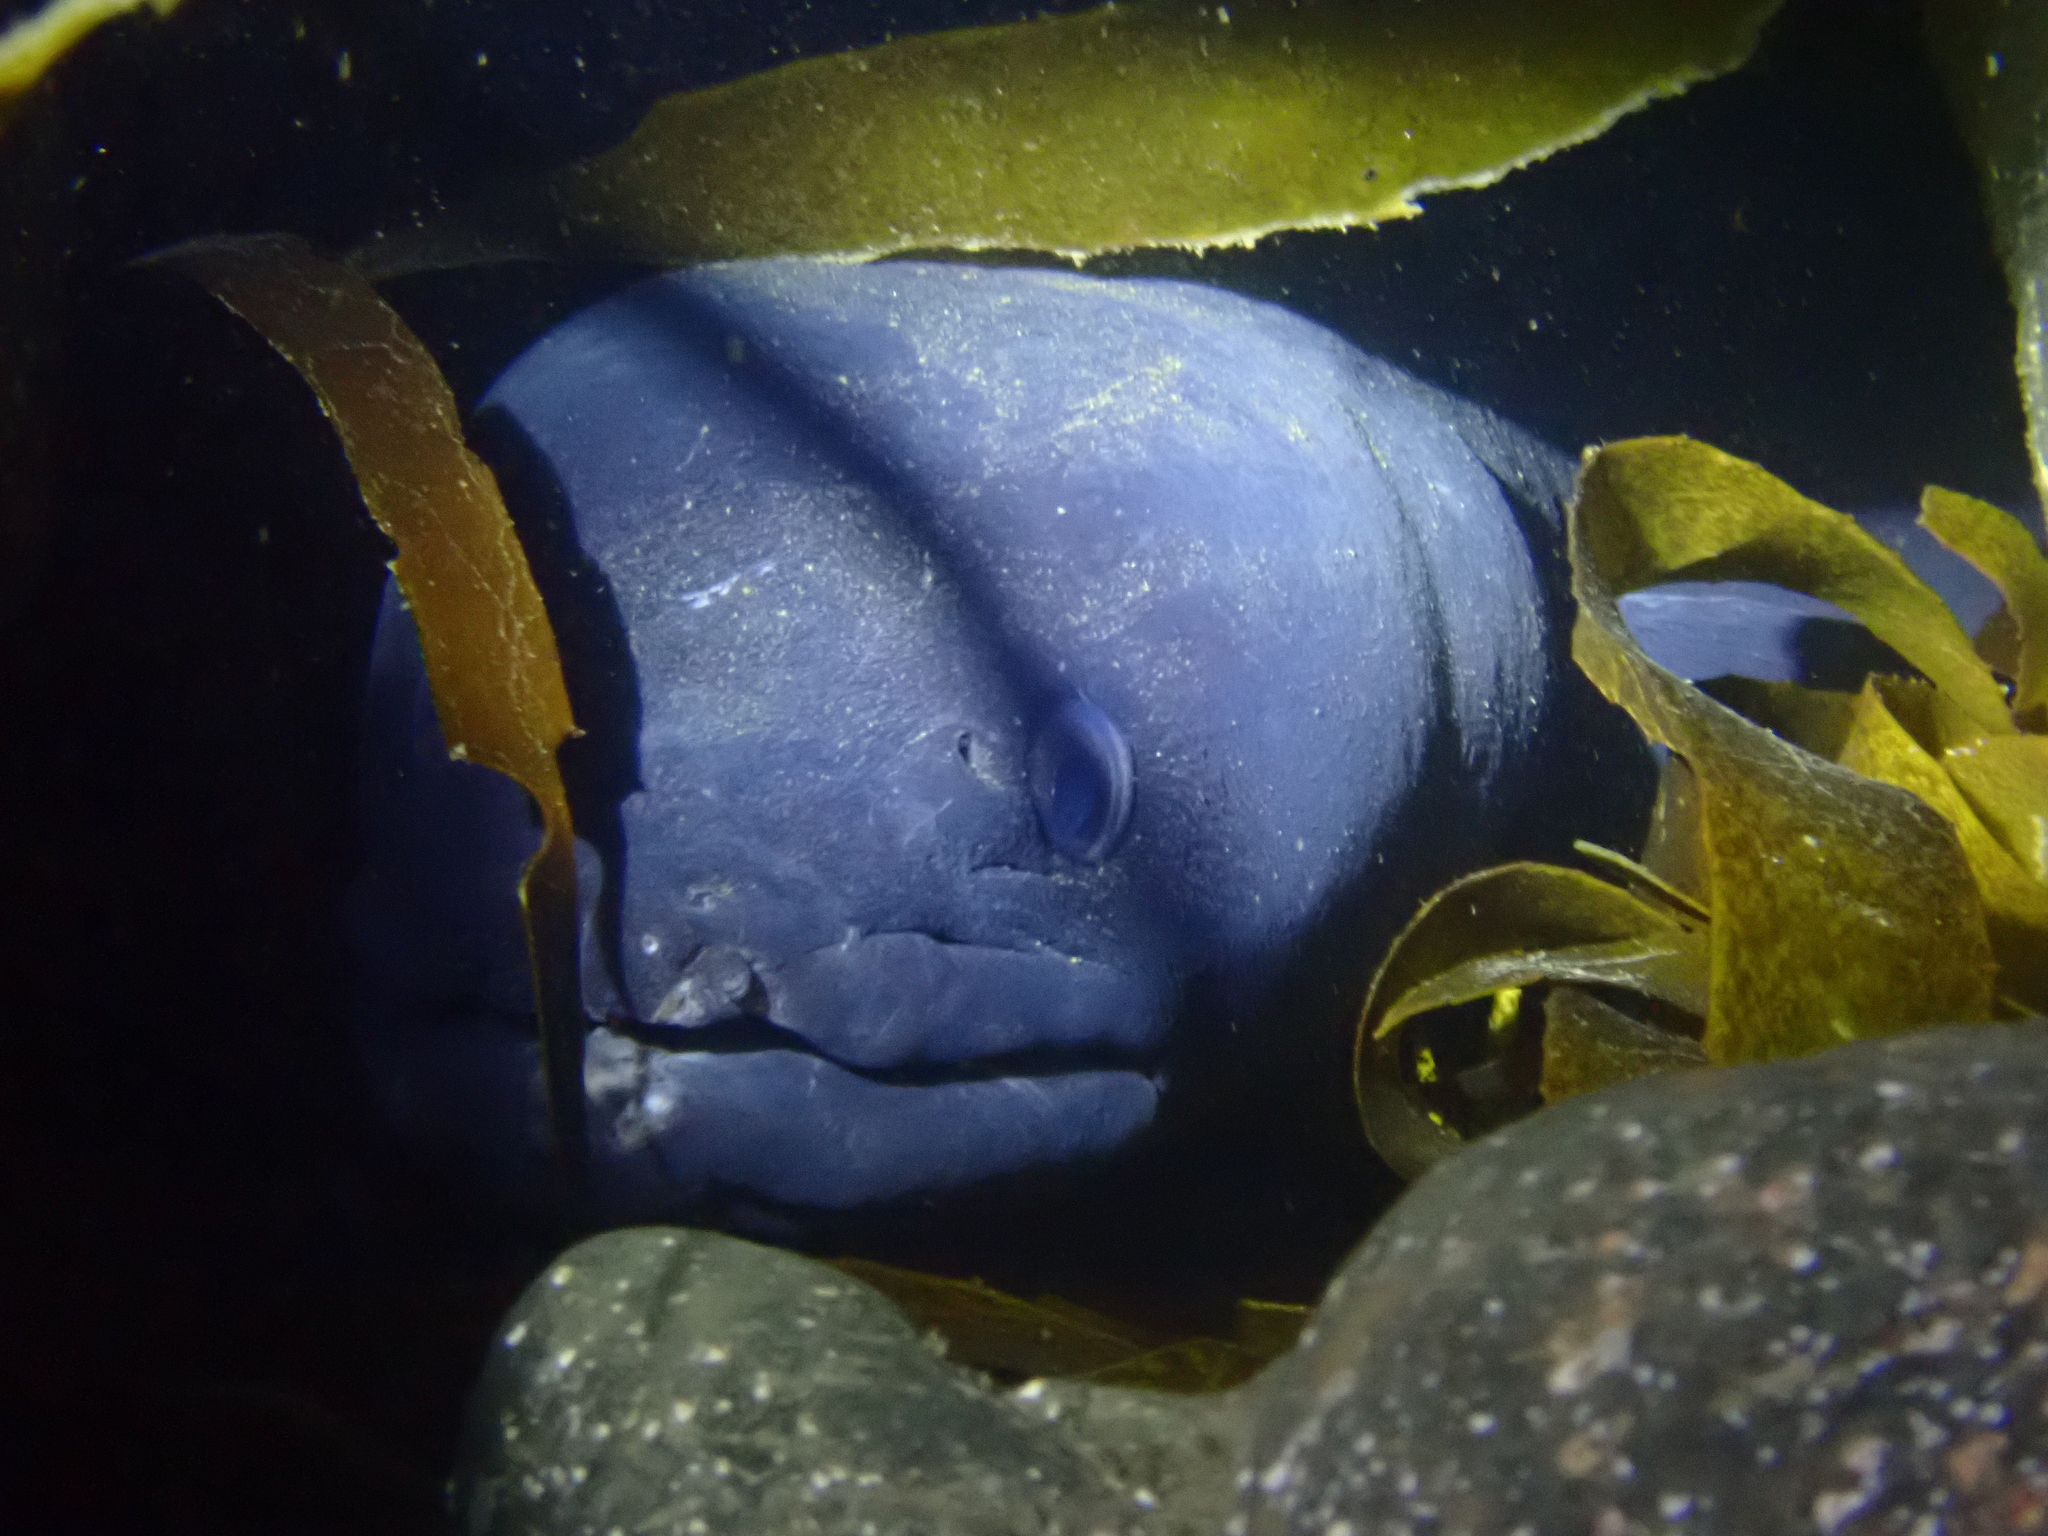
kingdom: Animalia
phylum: Chordata
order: Anguilliformes
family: Congridae
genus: Conger
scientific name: Conger verreauxi
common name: Conger eel
